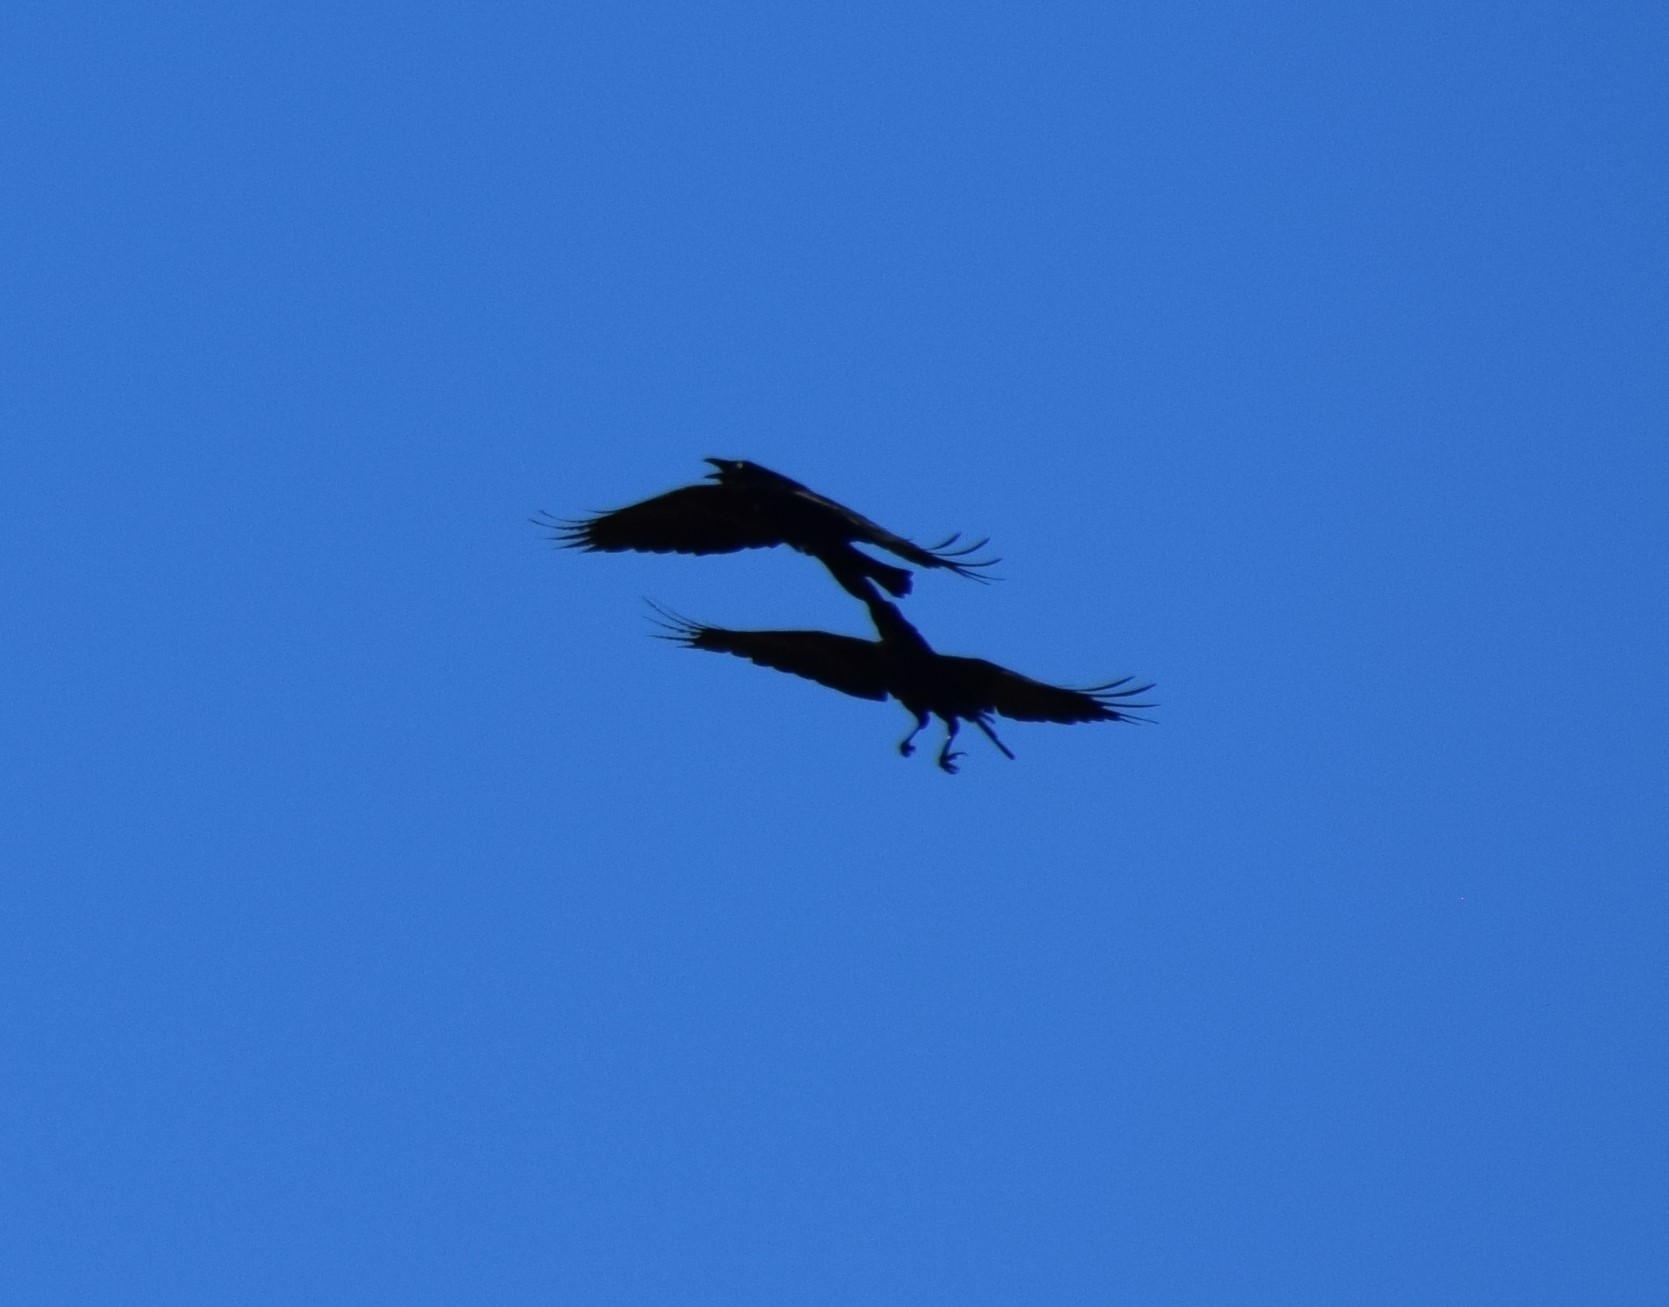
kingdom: Animalia
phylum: Chordata
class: Aves
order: Passeriformes
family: Corvidae
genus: Corvus
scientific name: Corvus coronoides
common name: Australian raven
